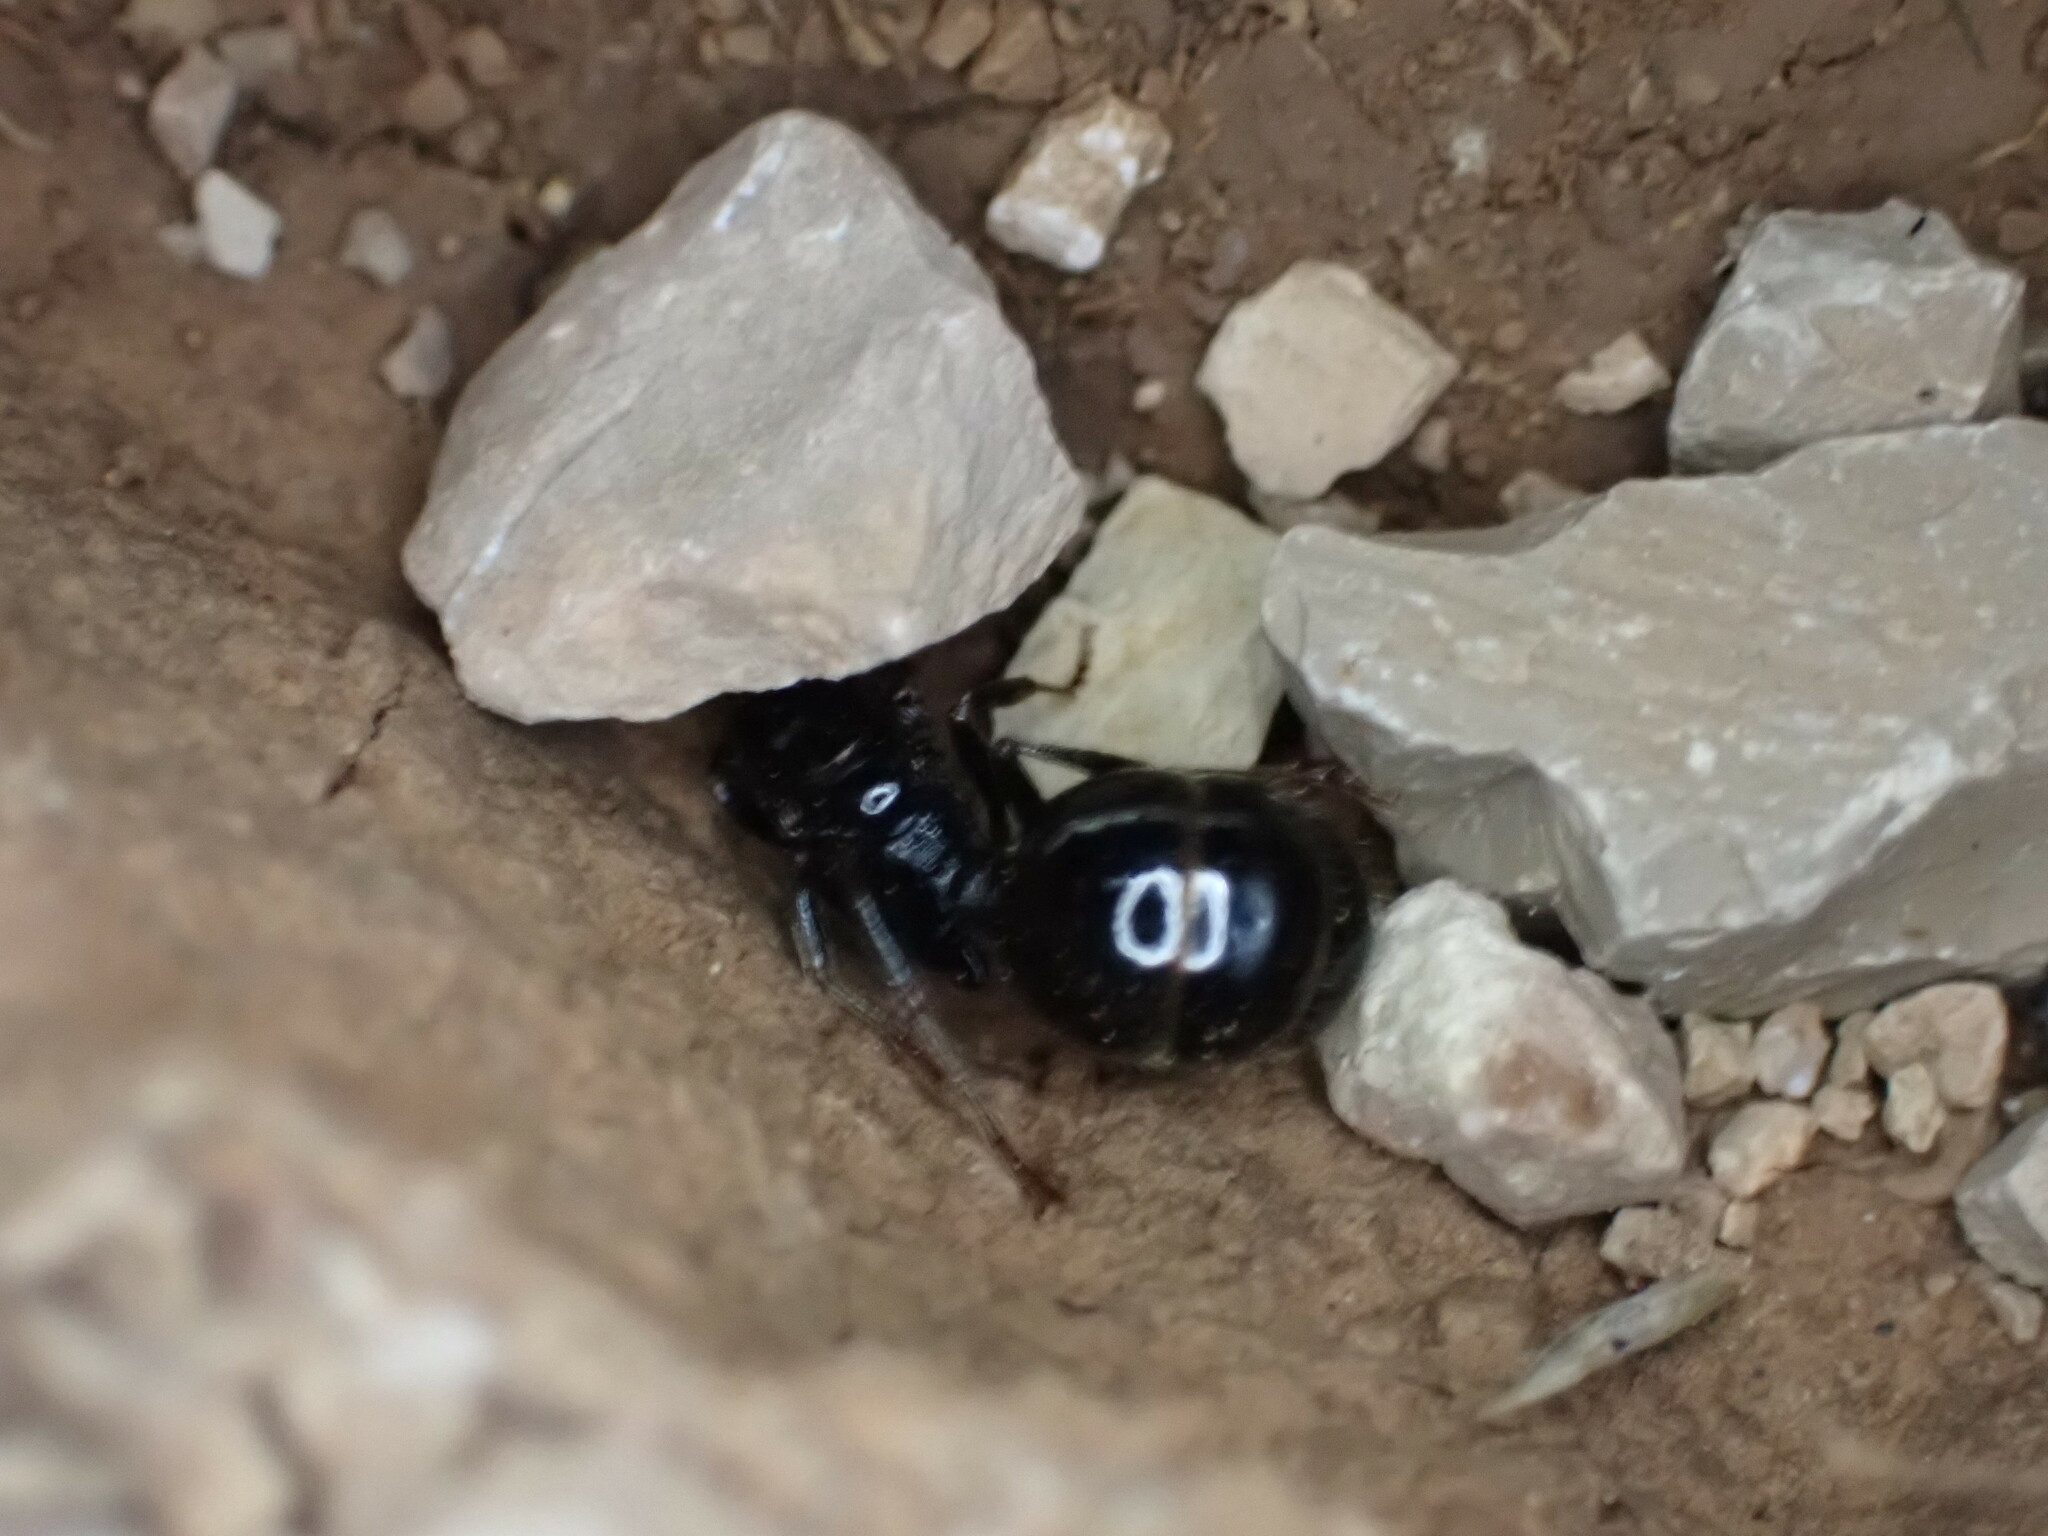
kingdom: Animalia
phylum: Arthropoda
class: Insecta
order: Hymenoptera
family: Formicidae
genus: Messor
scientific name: Messor barbarus
